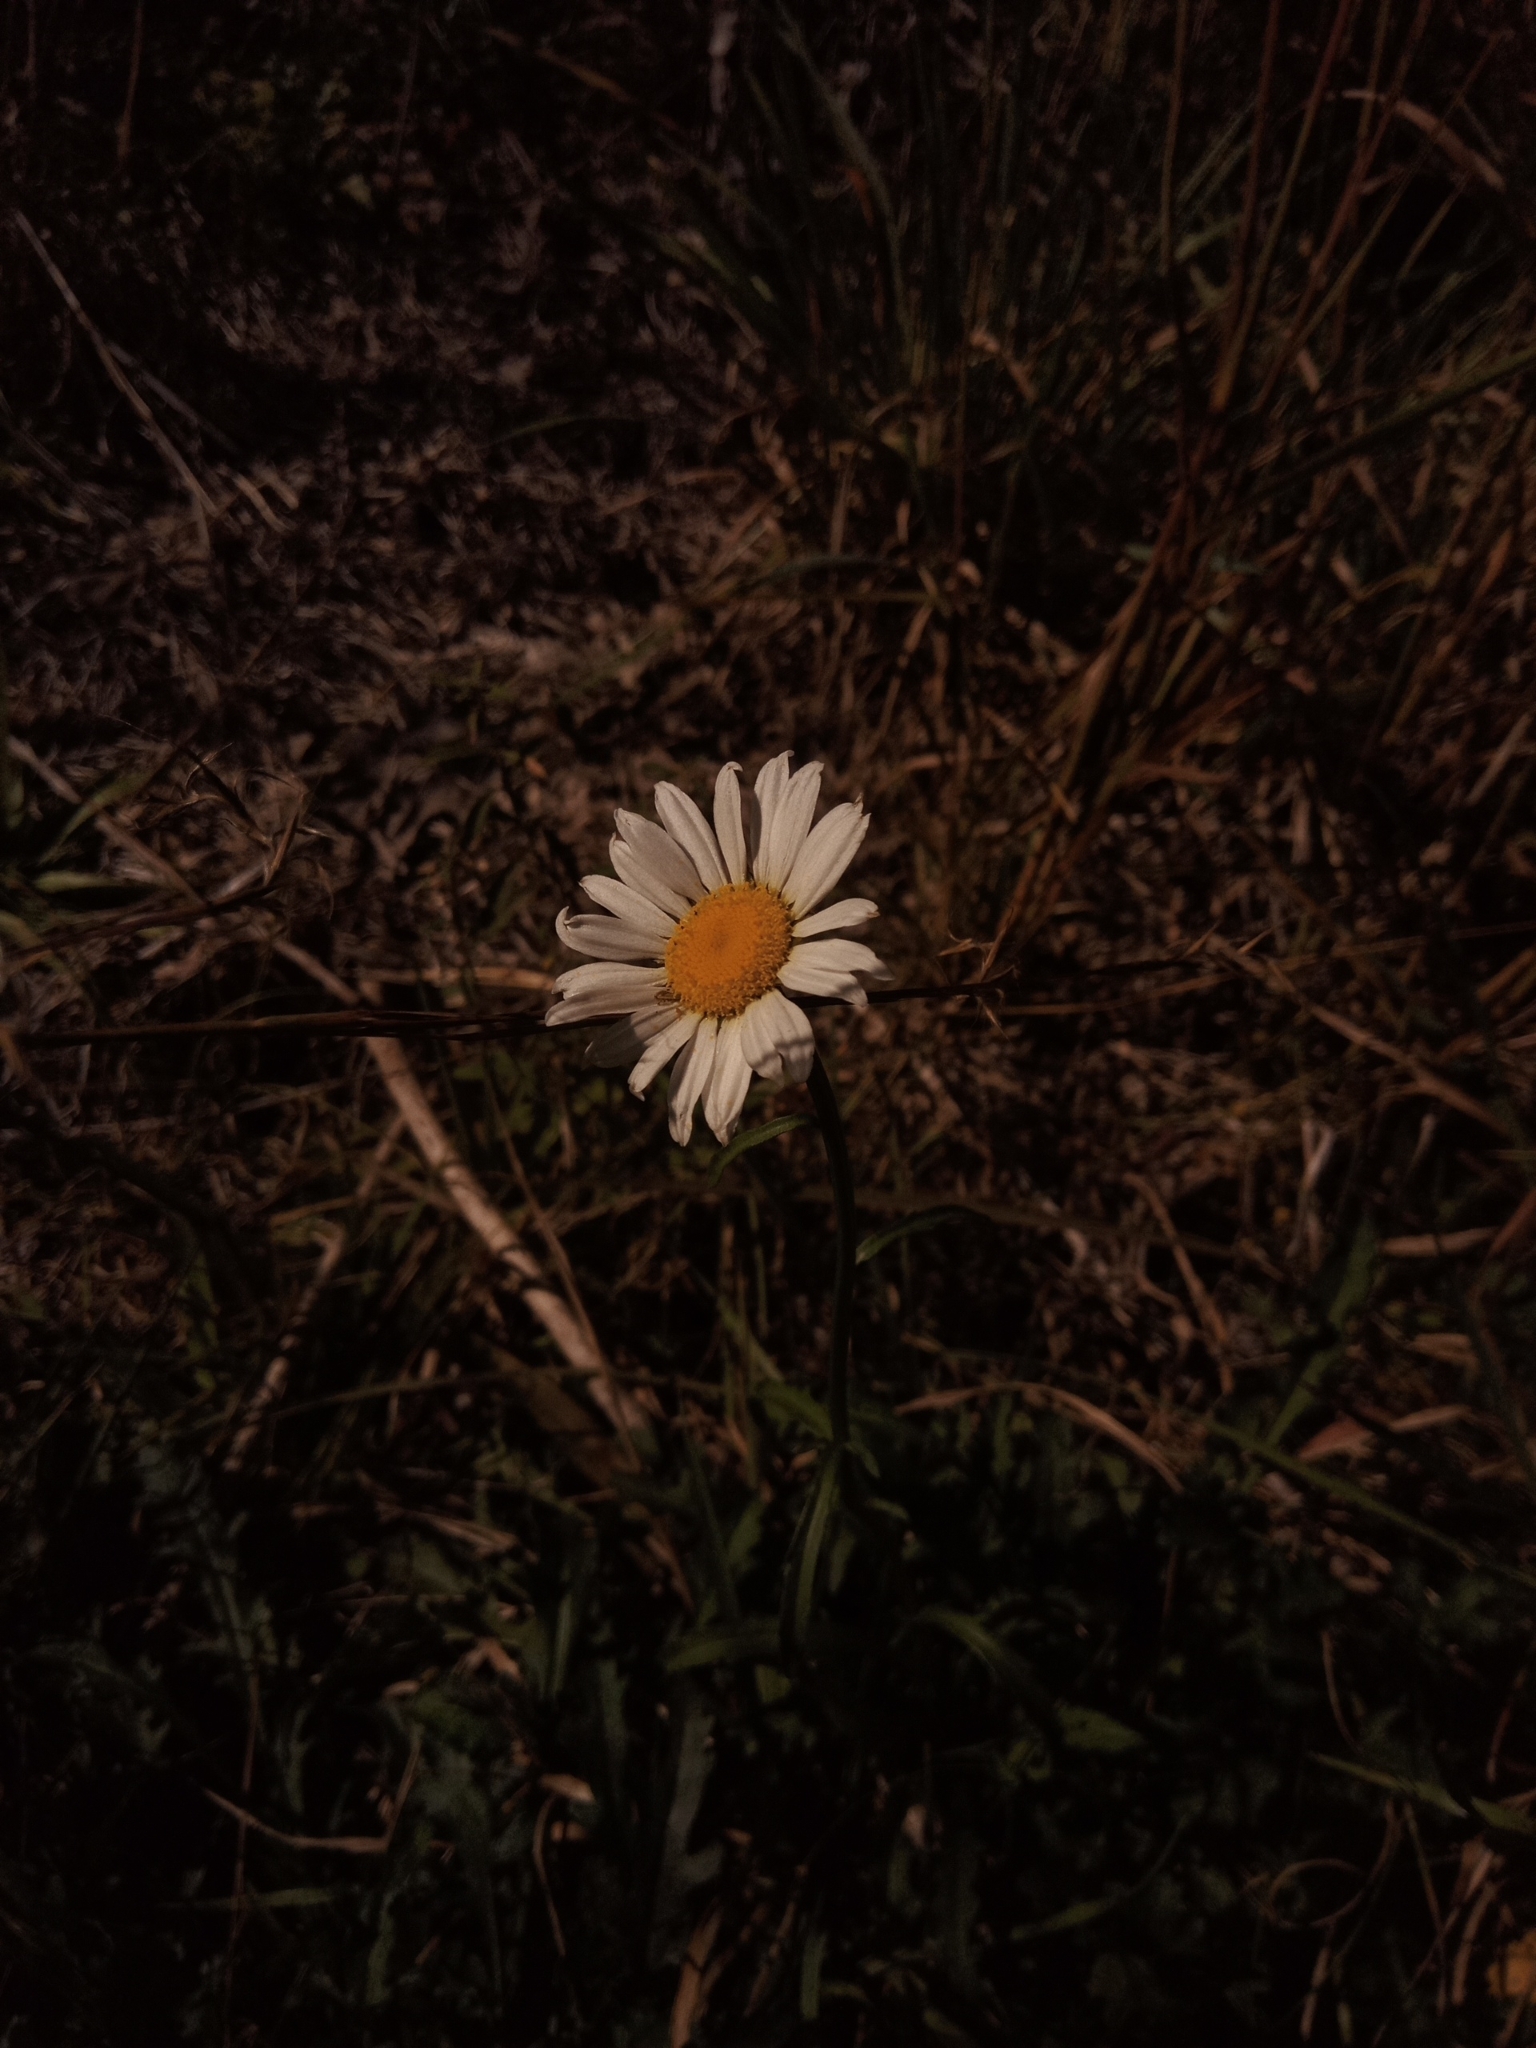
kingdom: Plantae
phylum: Tracheophyta
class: Magnoliopsida
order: Asterales
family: Asteraceae
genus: Leucanthemum
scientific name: Leucanthemum vulgare
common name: Oxeye daisy
